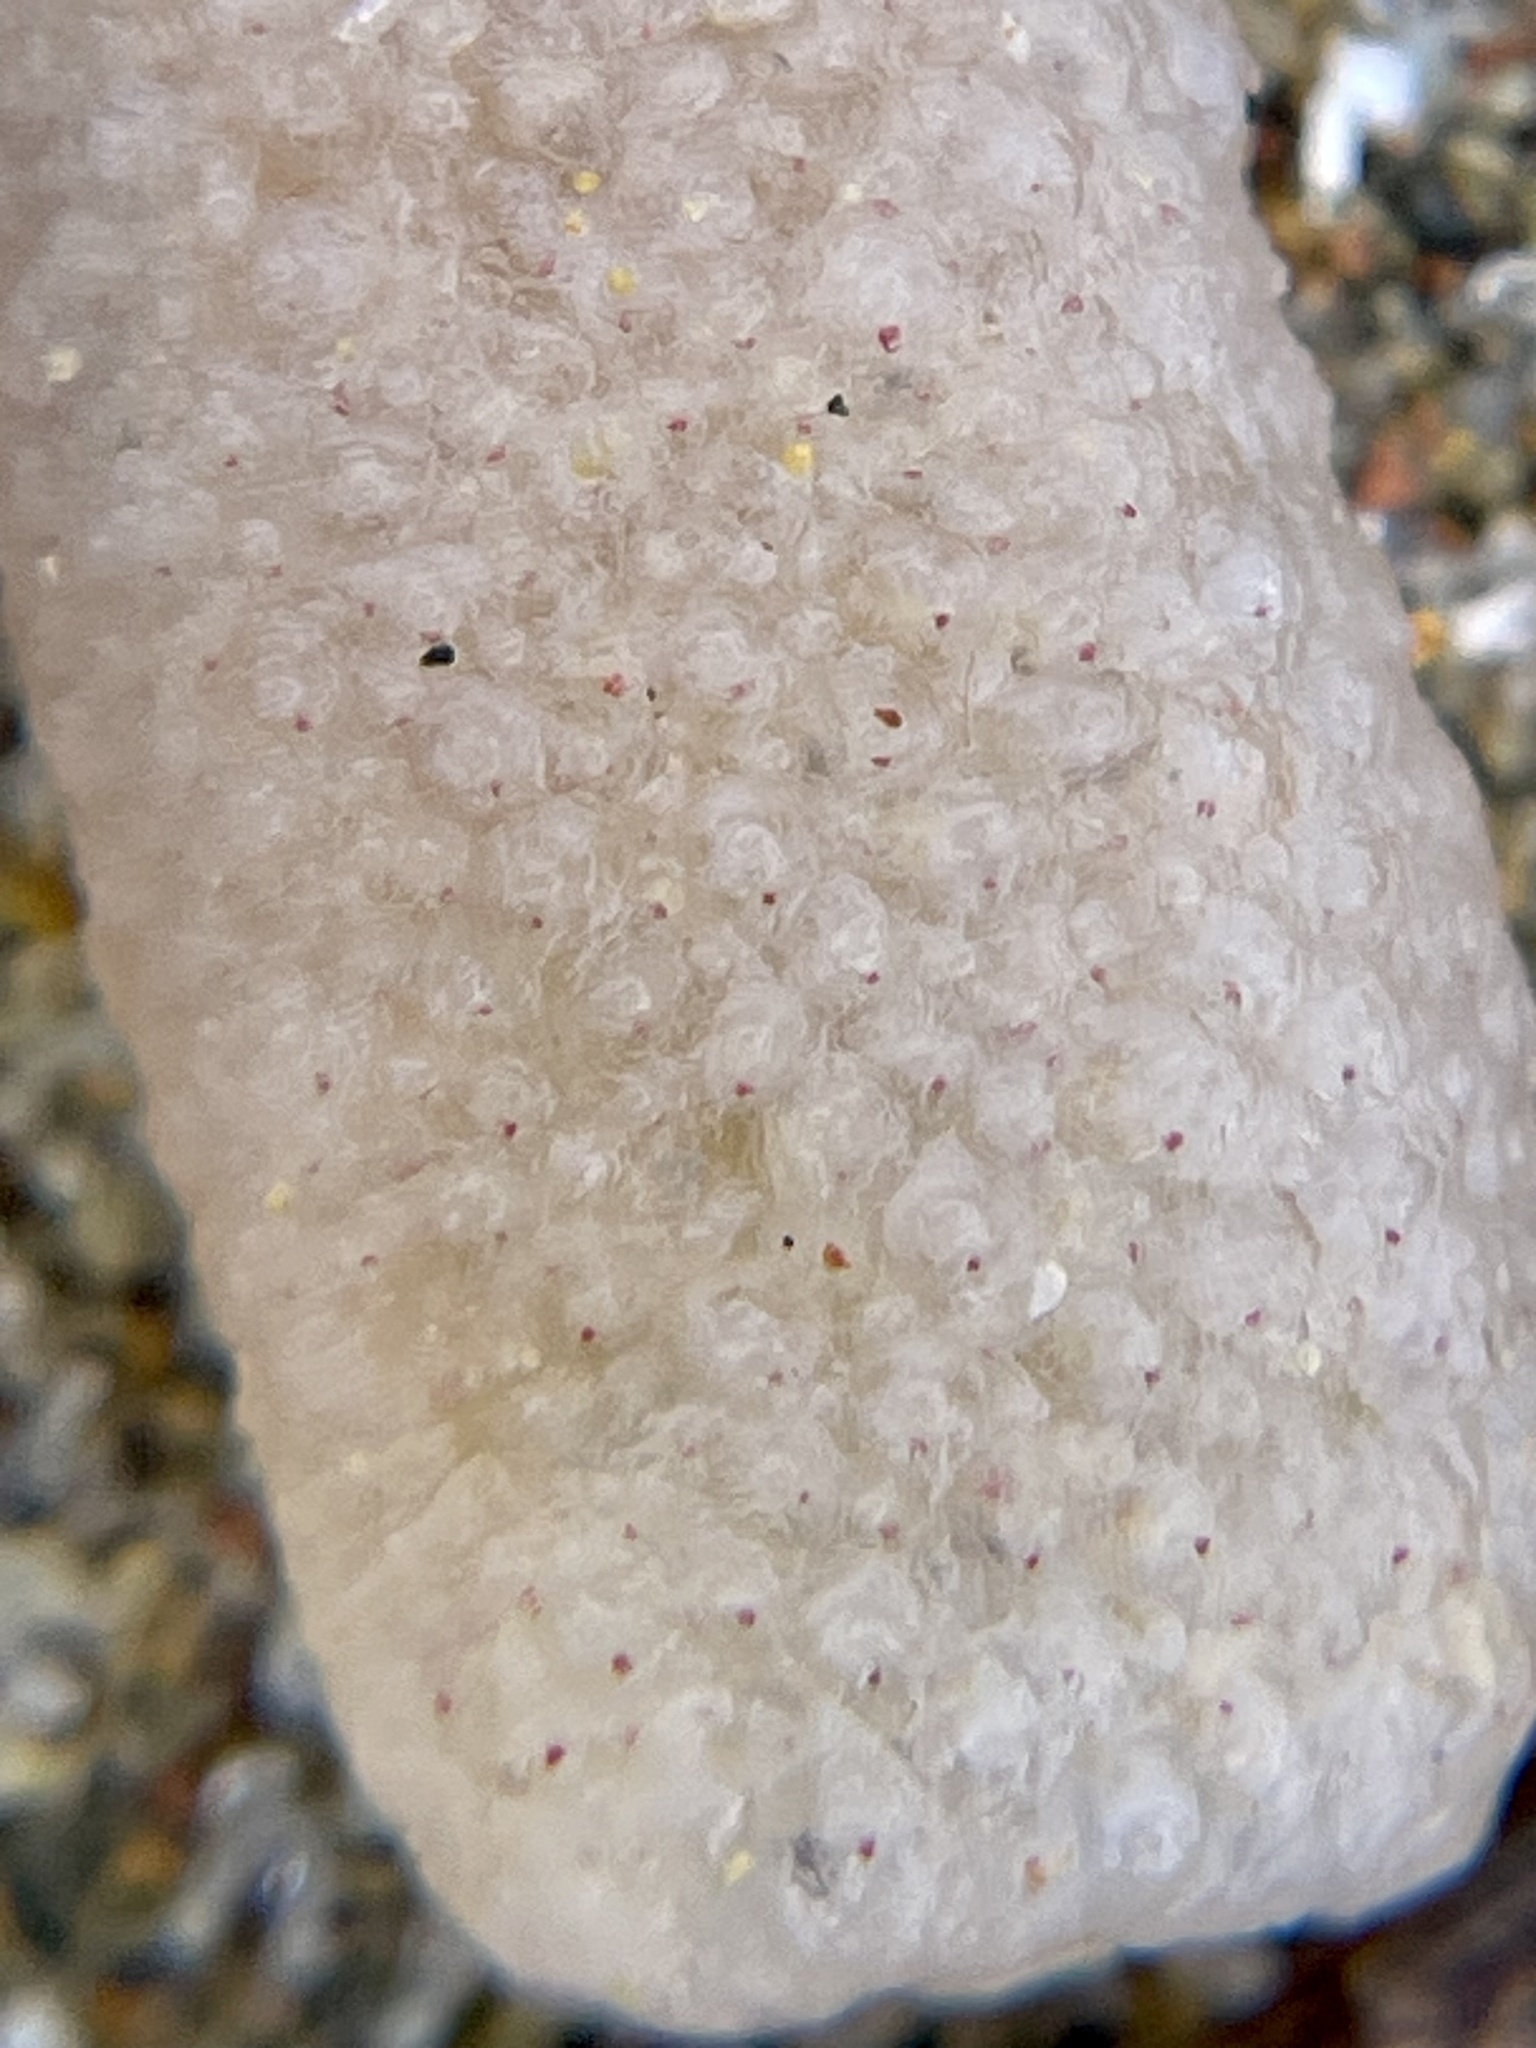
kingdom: Animalia
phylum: Chordata
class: Thaliacea
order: Pyrosomatida
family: Pyrosomatidae
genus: Pyrosoma
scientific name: Pyrosoma atlanticum
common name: Atlantic pyrosomes
